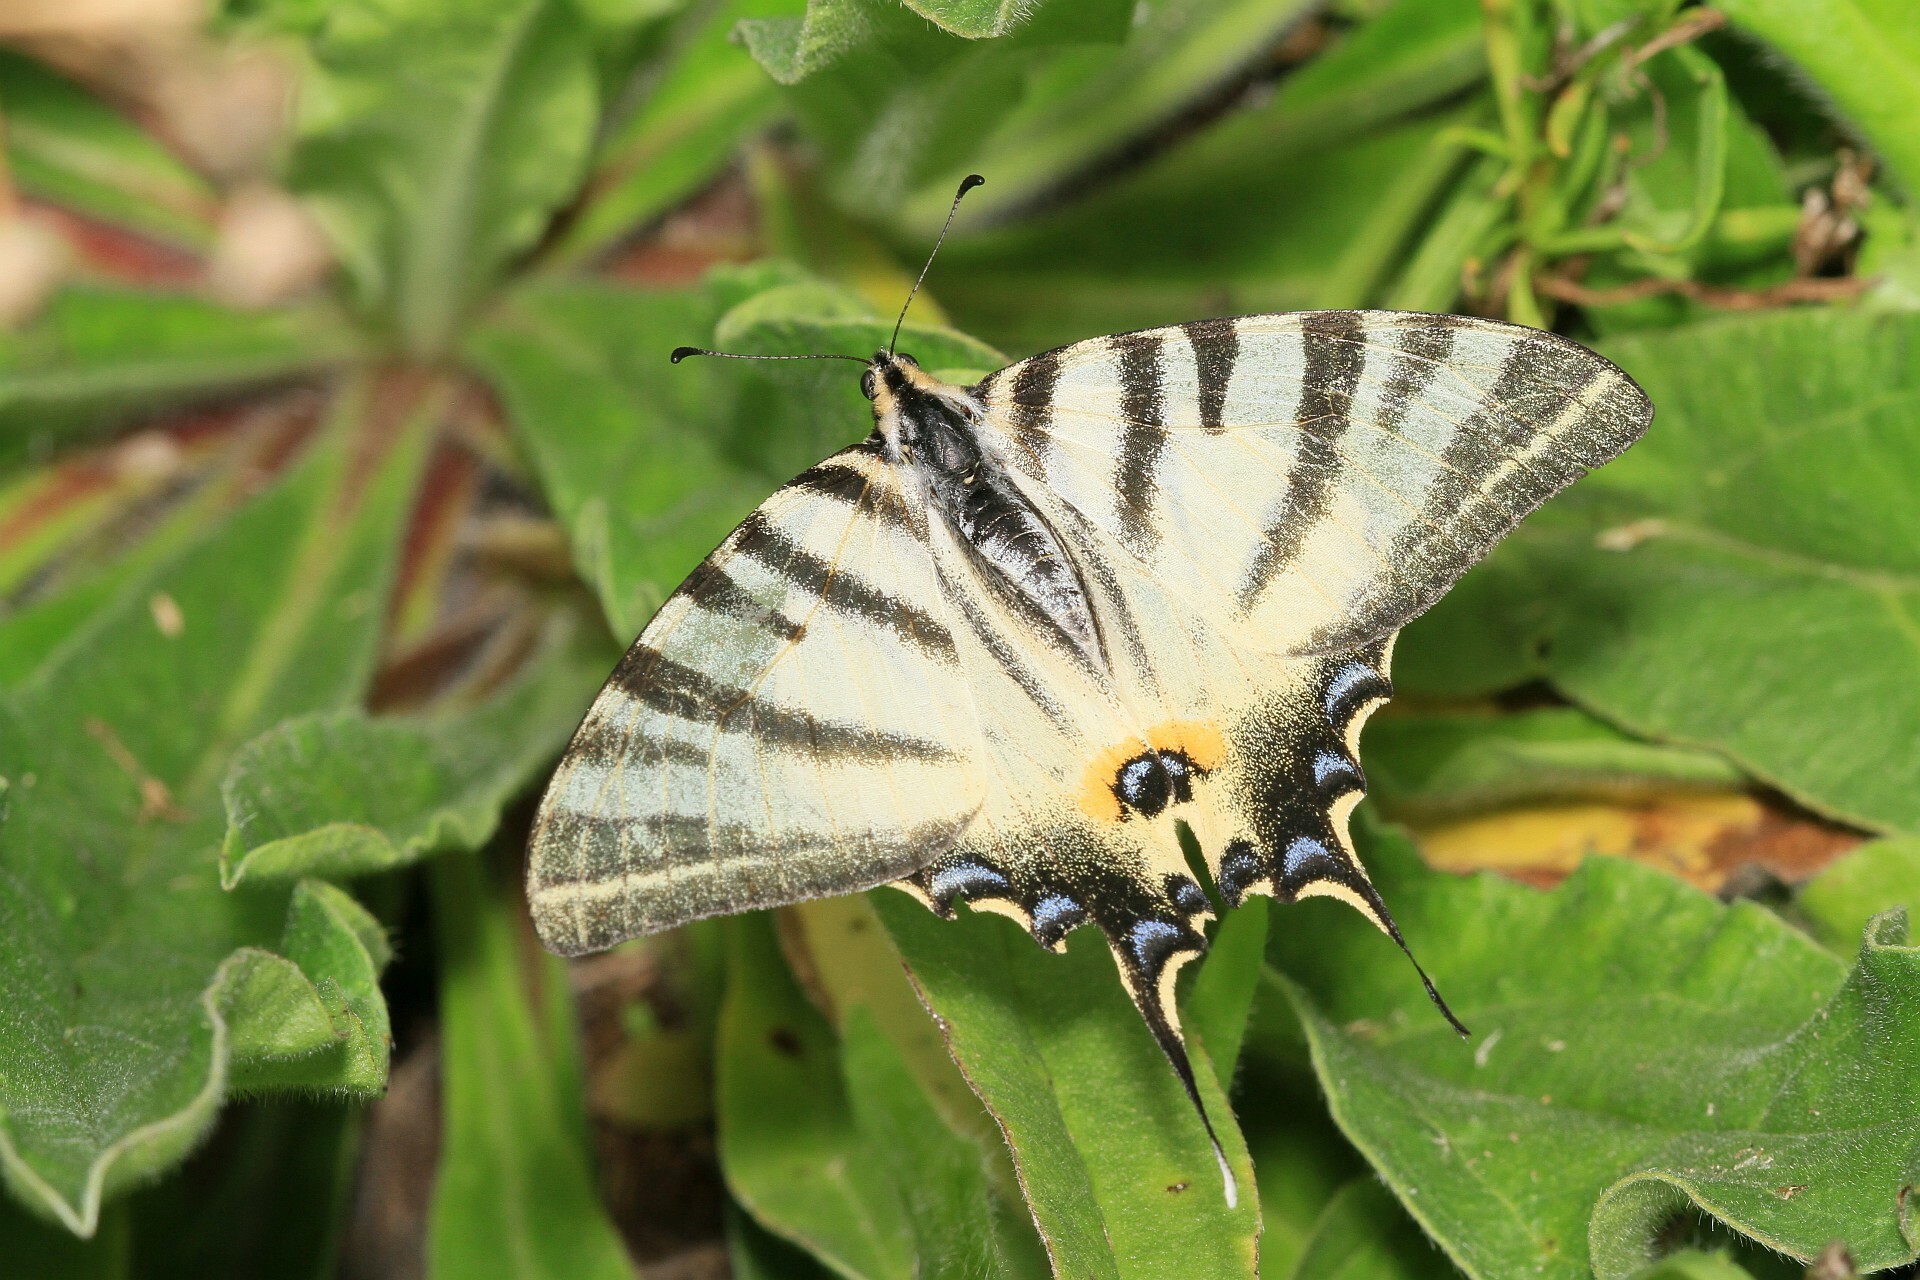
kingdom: Animalia
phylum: Arthropoda
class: Insecta
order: Lepidoptera
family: Papilionidae
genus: Iphiclides
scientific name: Iphiclides podalirius
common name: Scarce swallowtail
